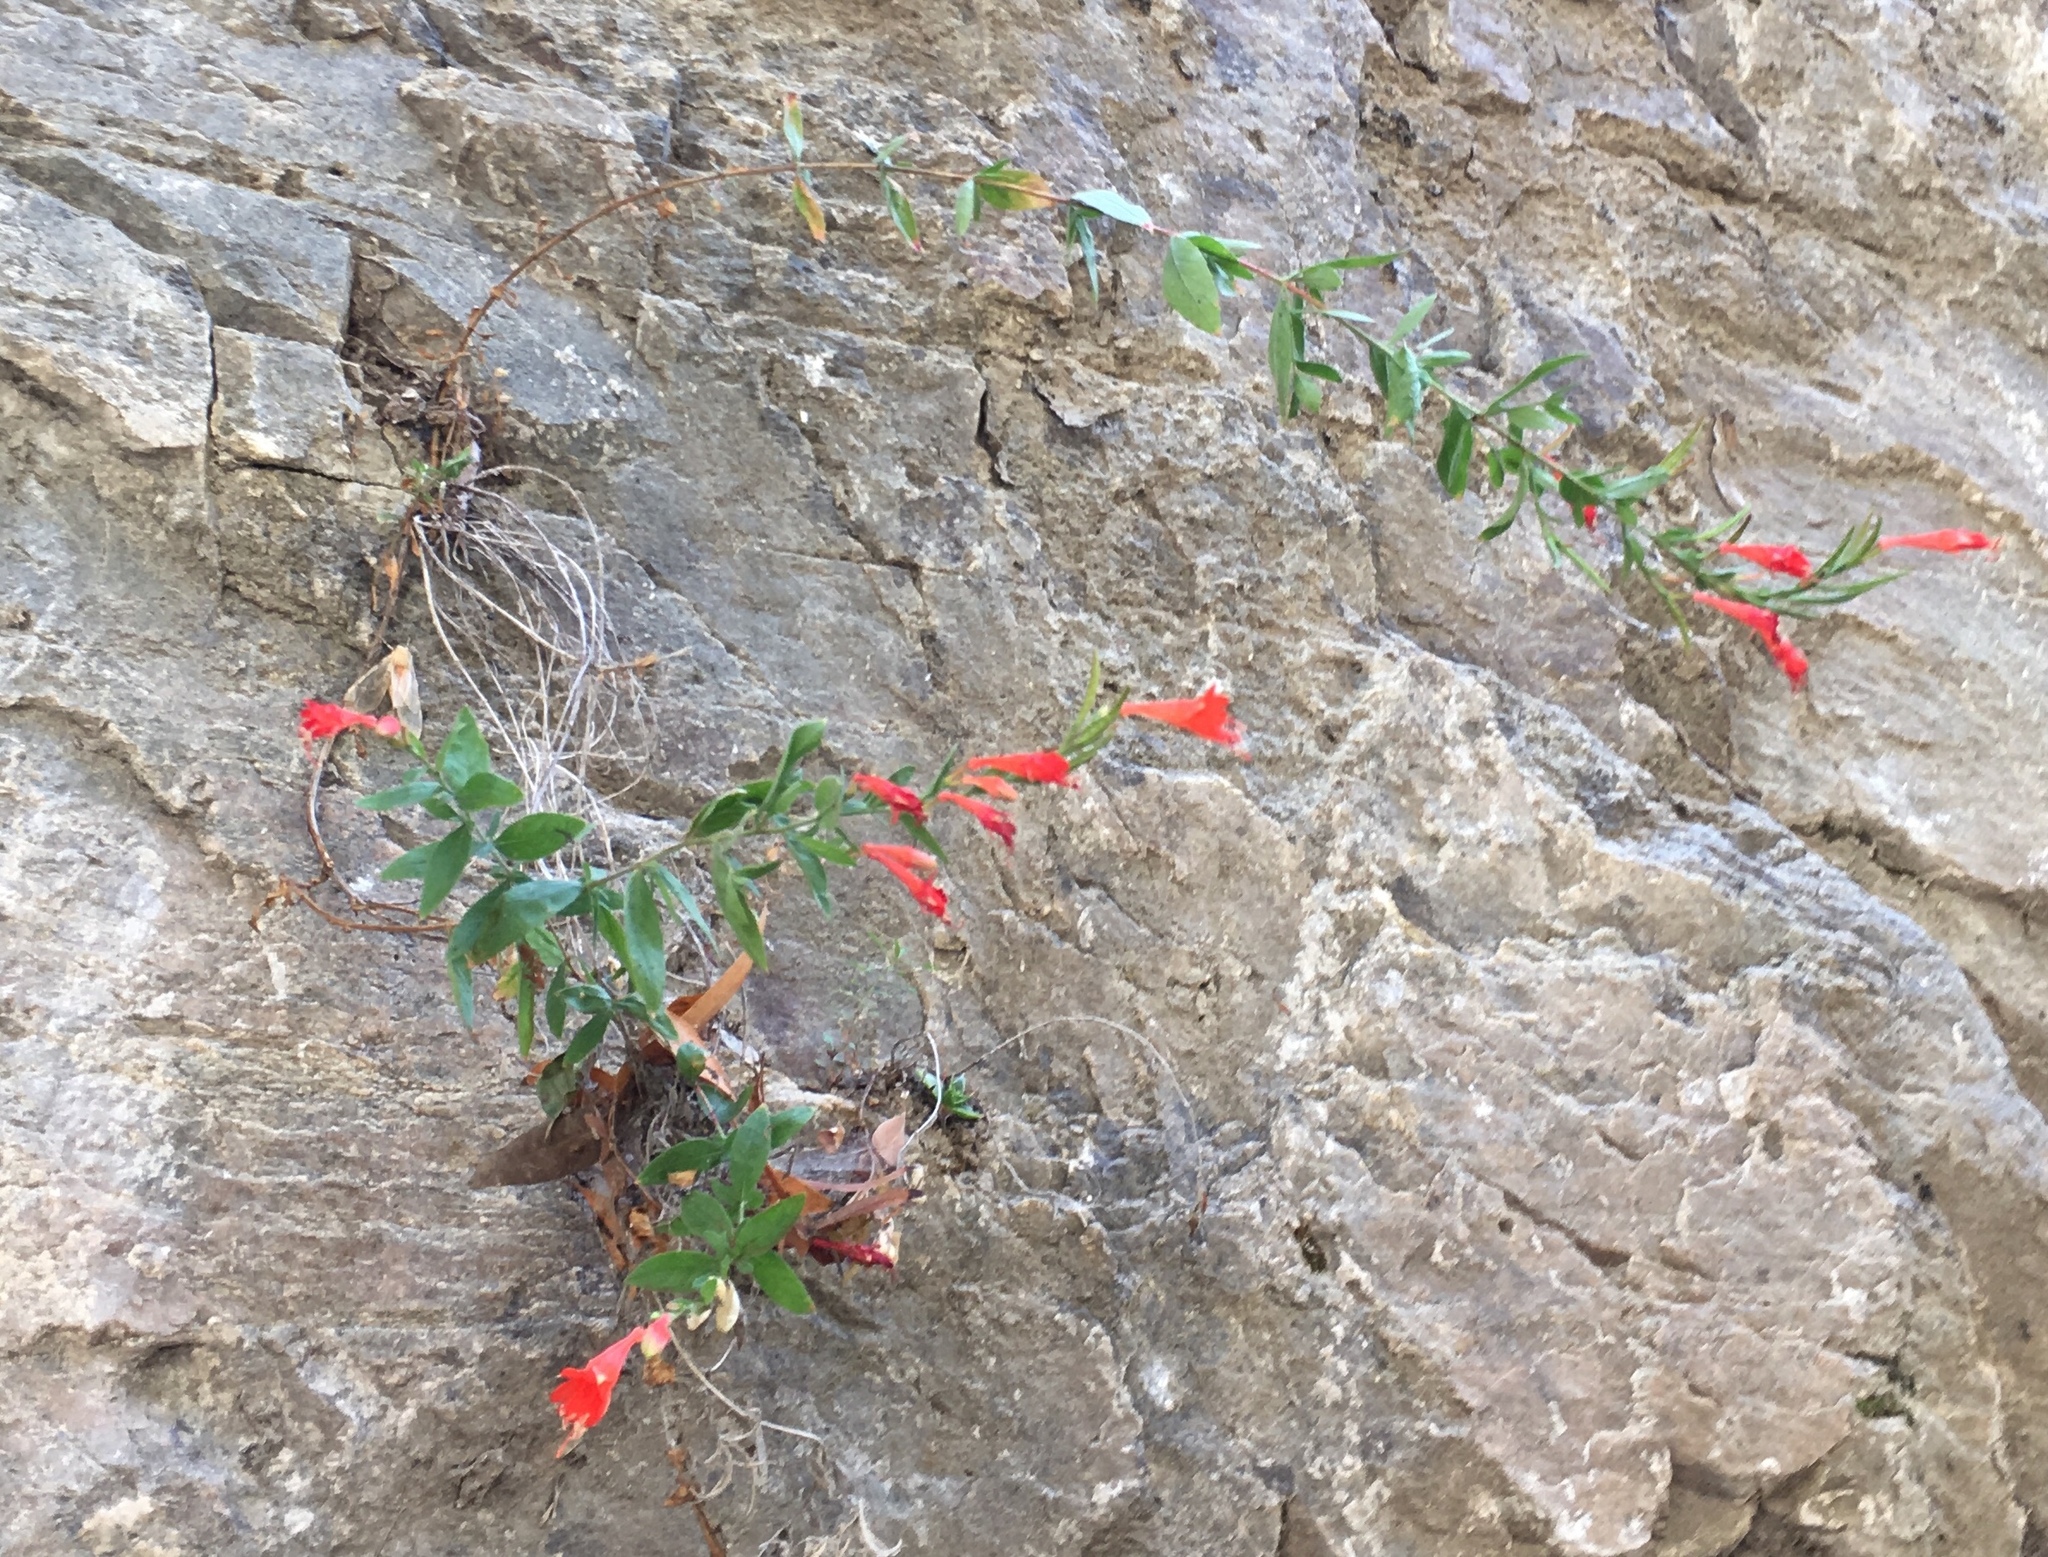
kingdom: Plantae
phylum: Tracheophyta
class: Magnoliopsida
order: Myrtales
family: Onagraceae
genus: Epilobium
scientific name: Epilobium canum
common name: California-fuchsia
